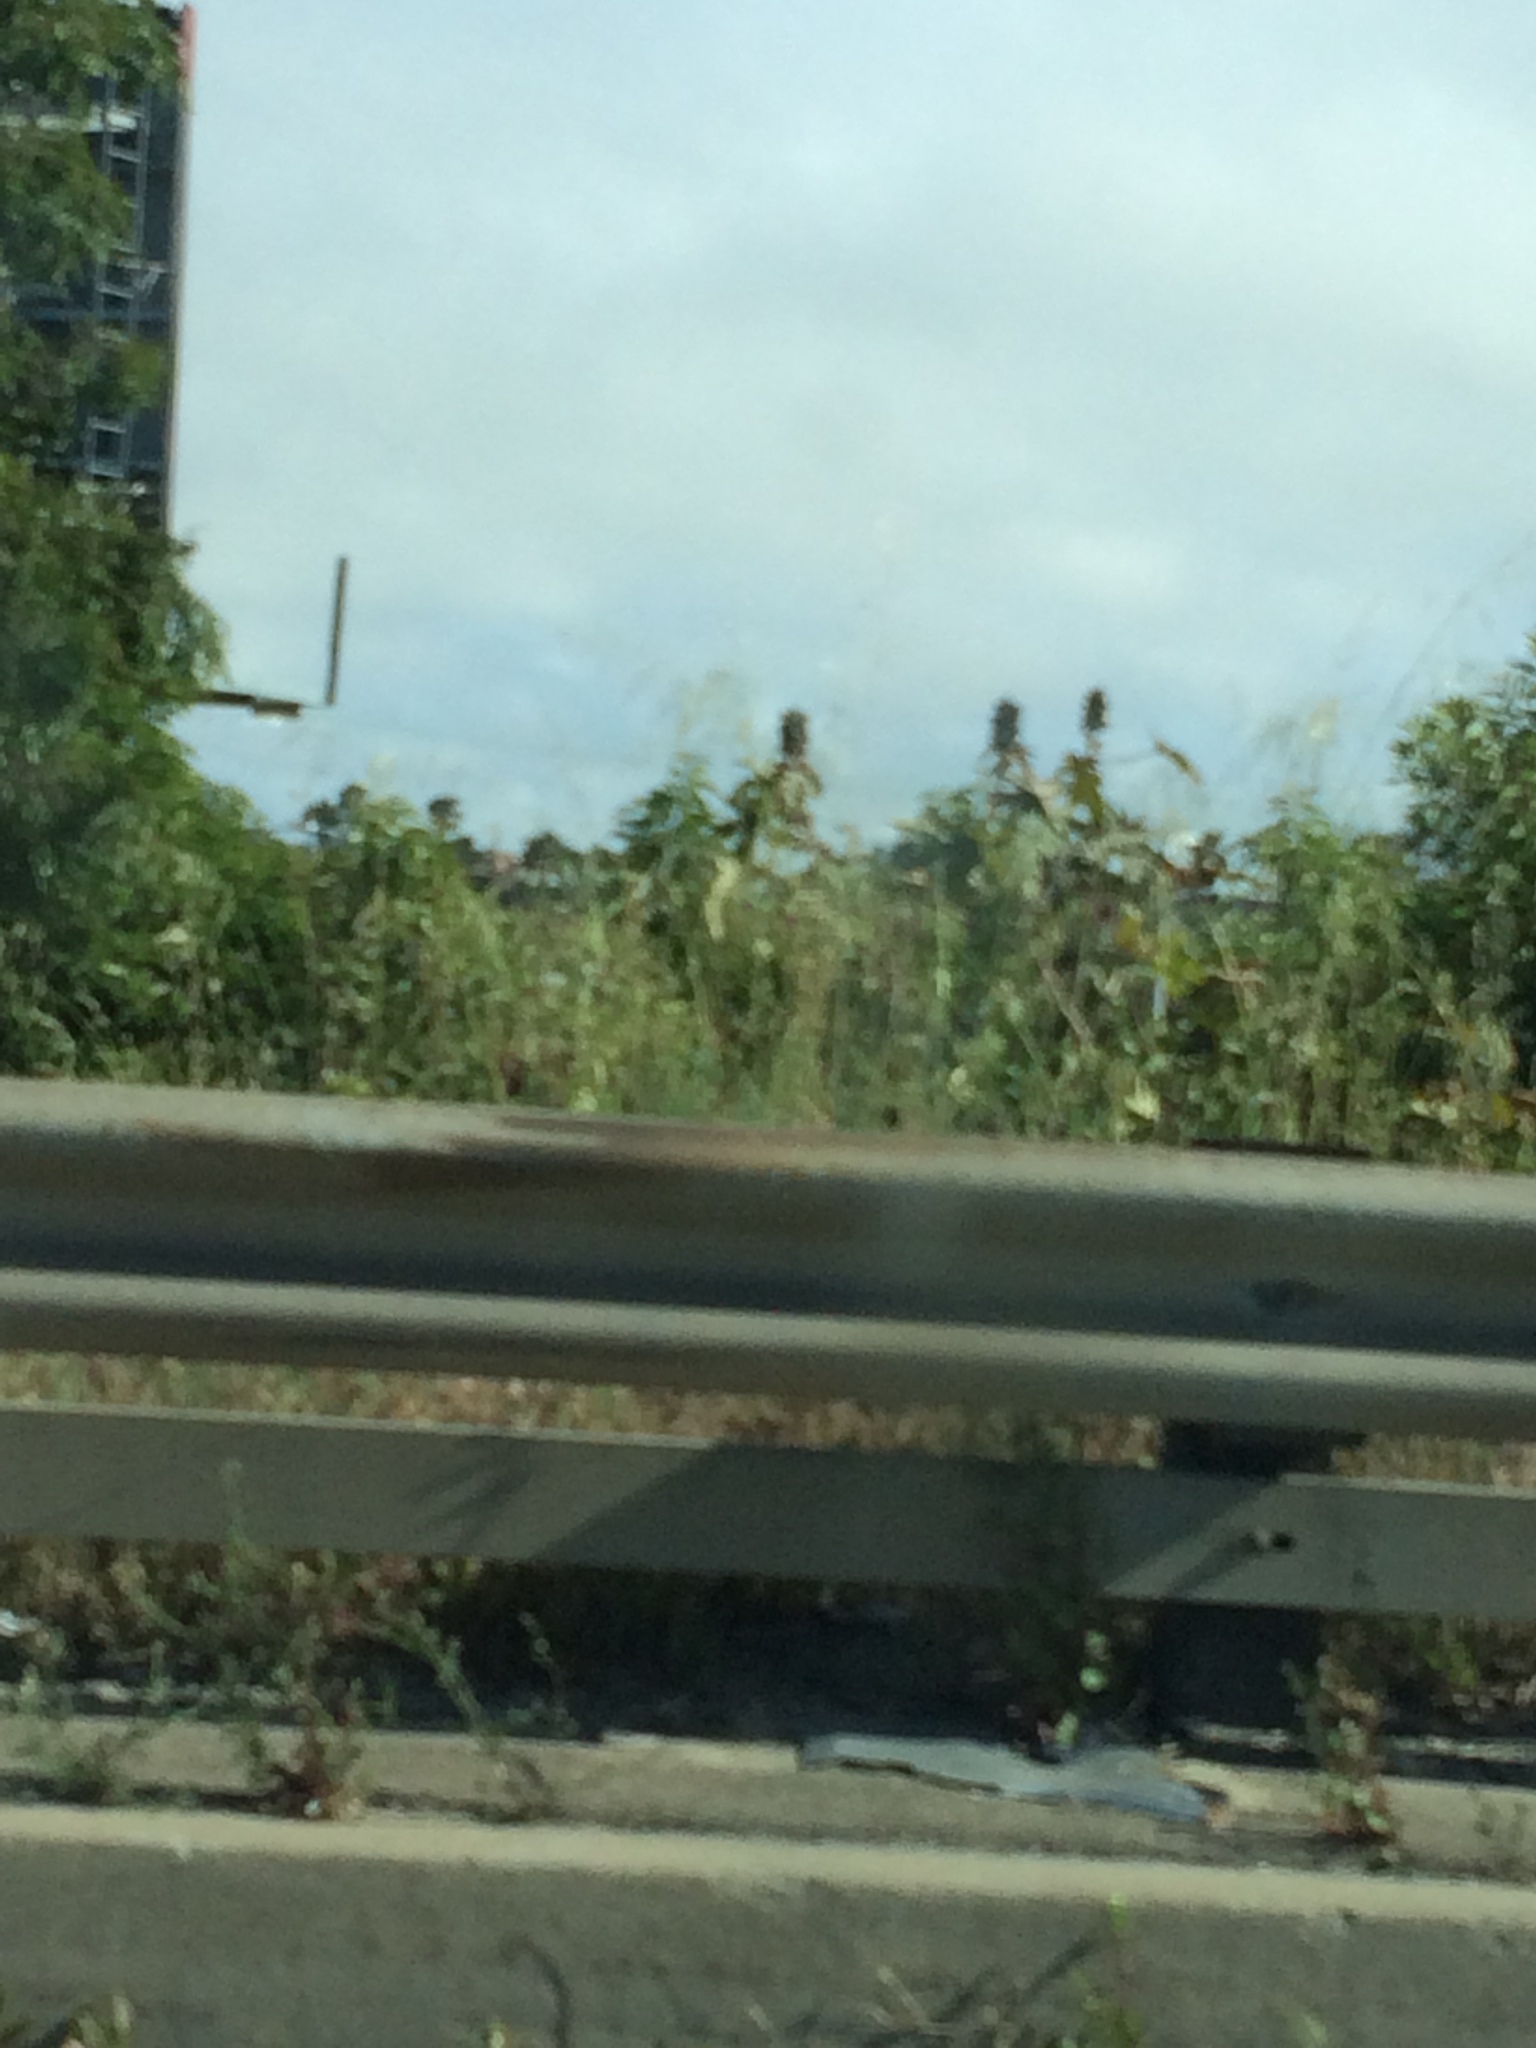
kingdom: Plantae
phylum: Tracheophyta
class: Magnoliopsida
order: Malpighiales
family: Euphorbiaceae
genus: Ricinus
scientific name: Ricinus communis
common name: Castor-oil-plant
